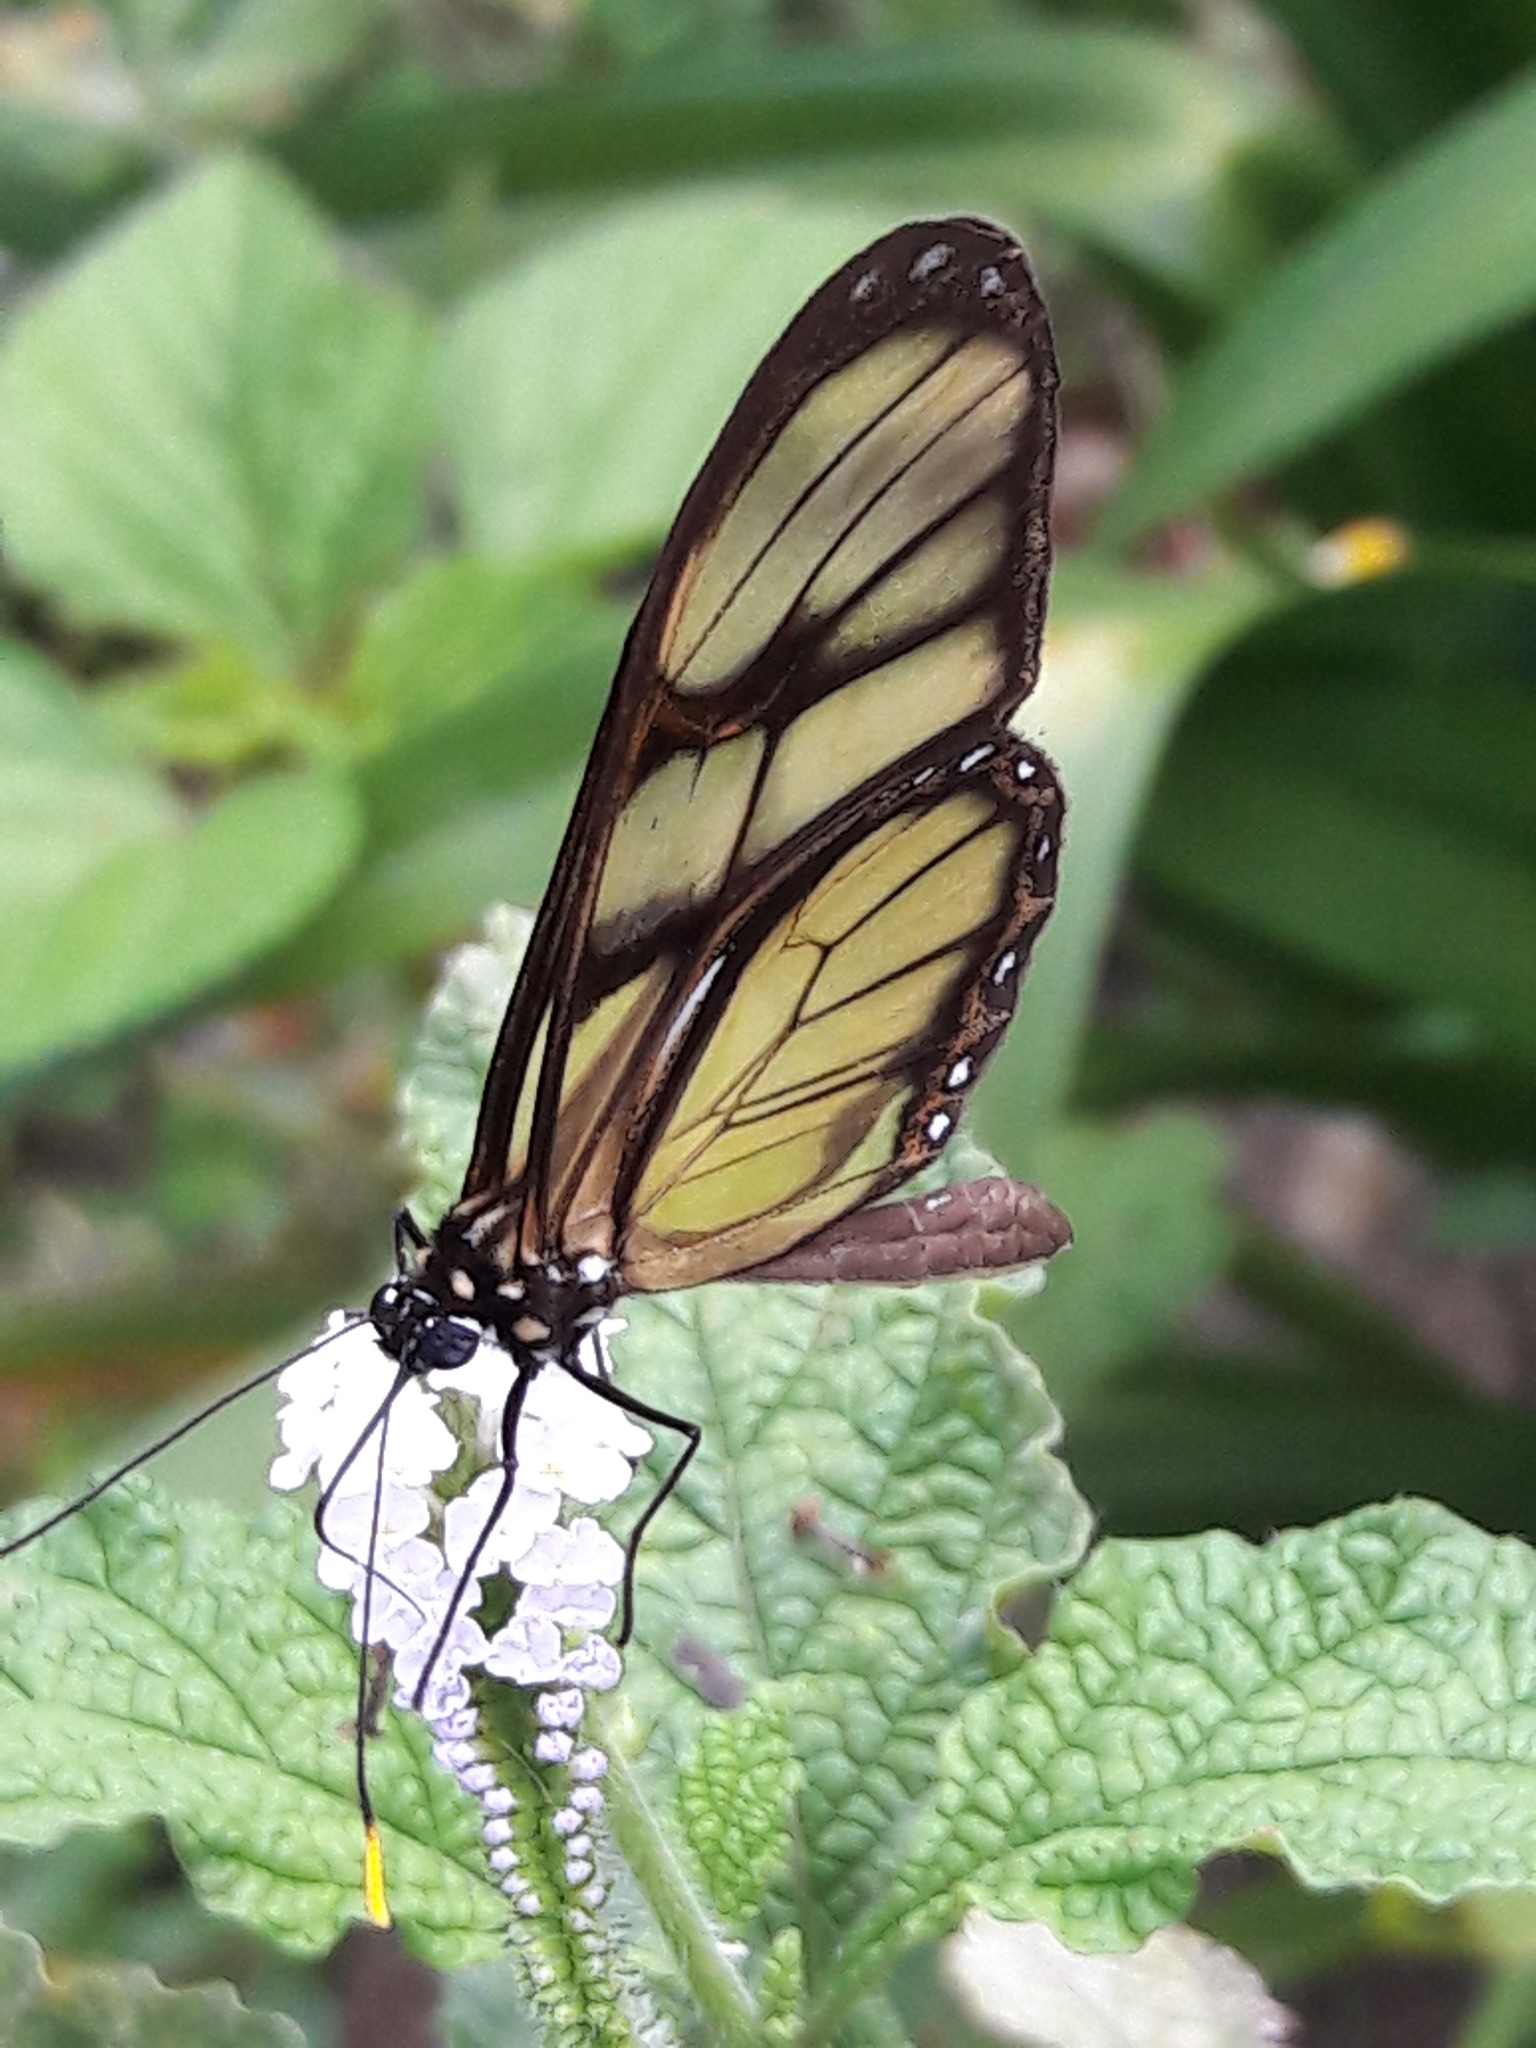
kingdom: Animalia
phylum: Arthropoda
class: Insecta
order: Lepidoptera
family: Nymphalidae
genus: Dircenna
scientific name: Dircenna dero
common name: Dero clearwing
